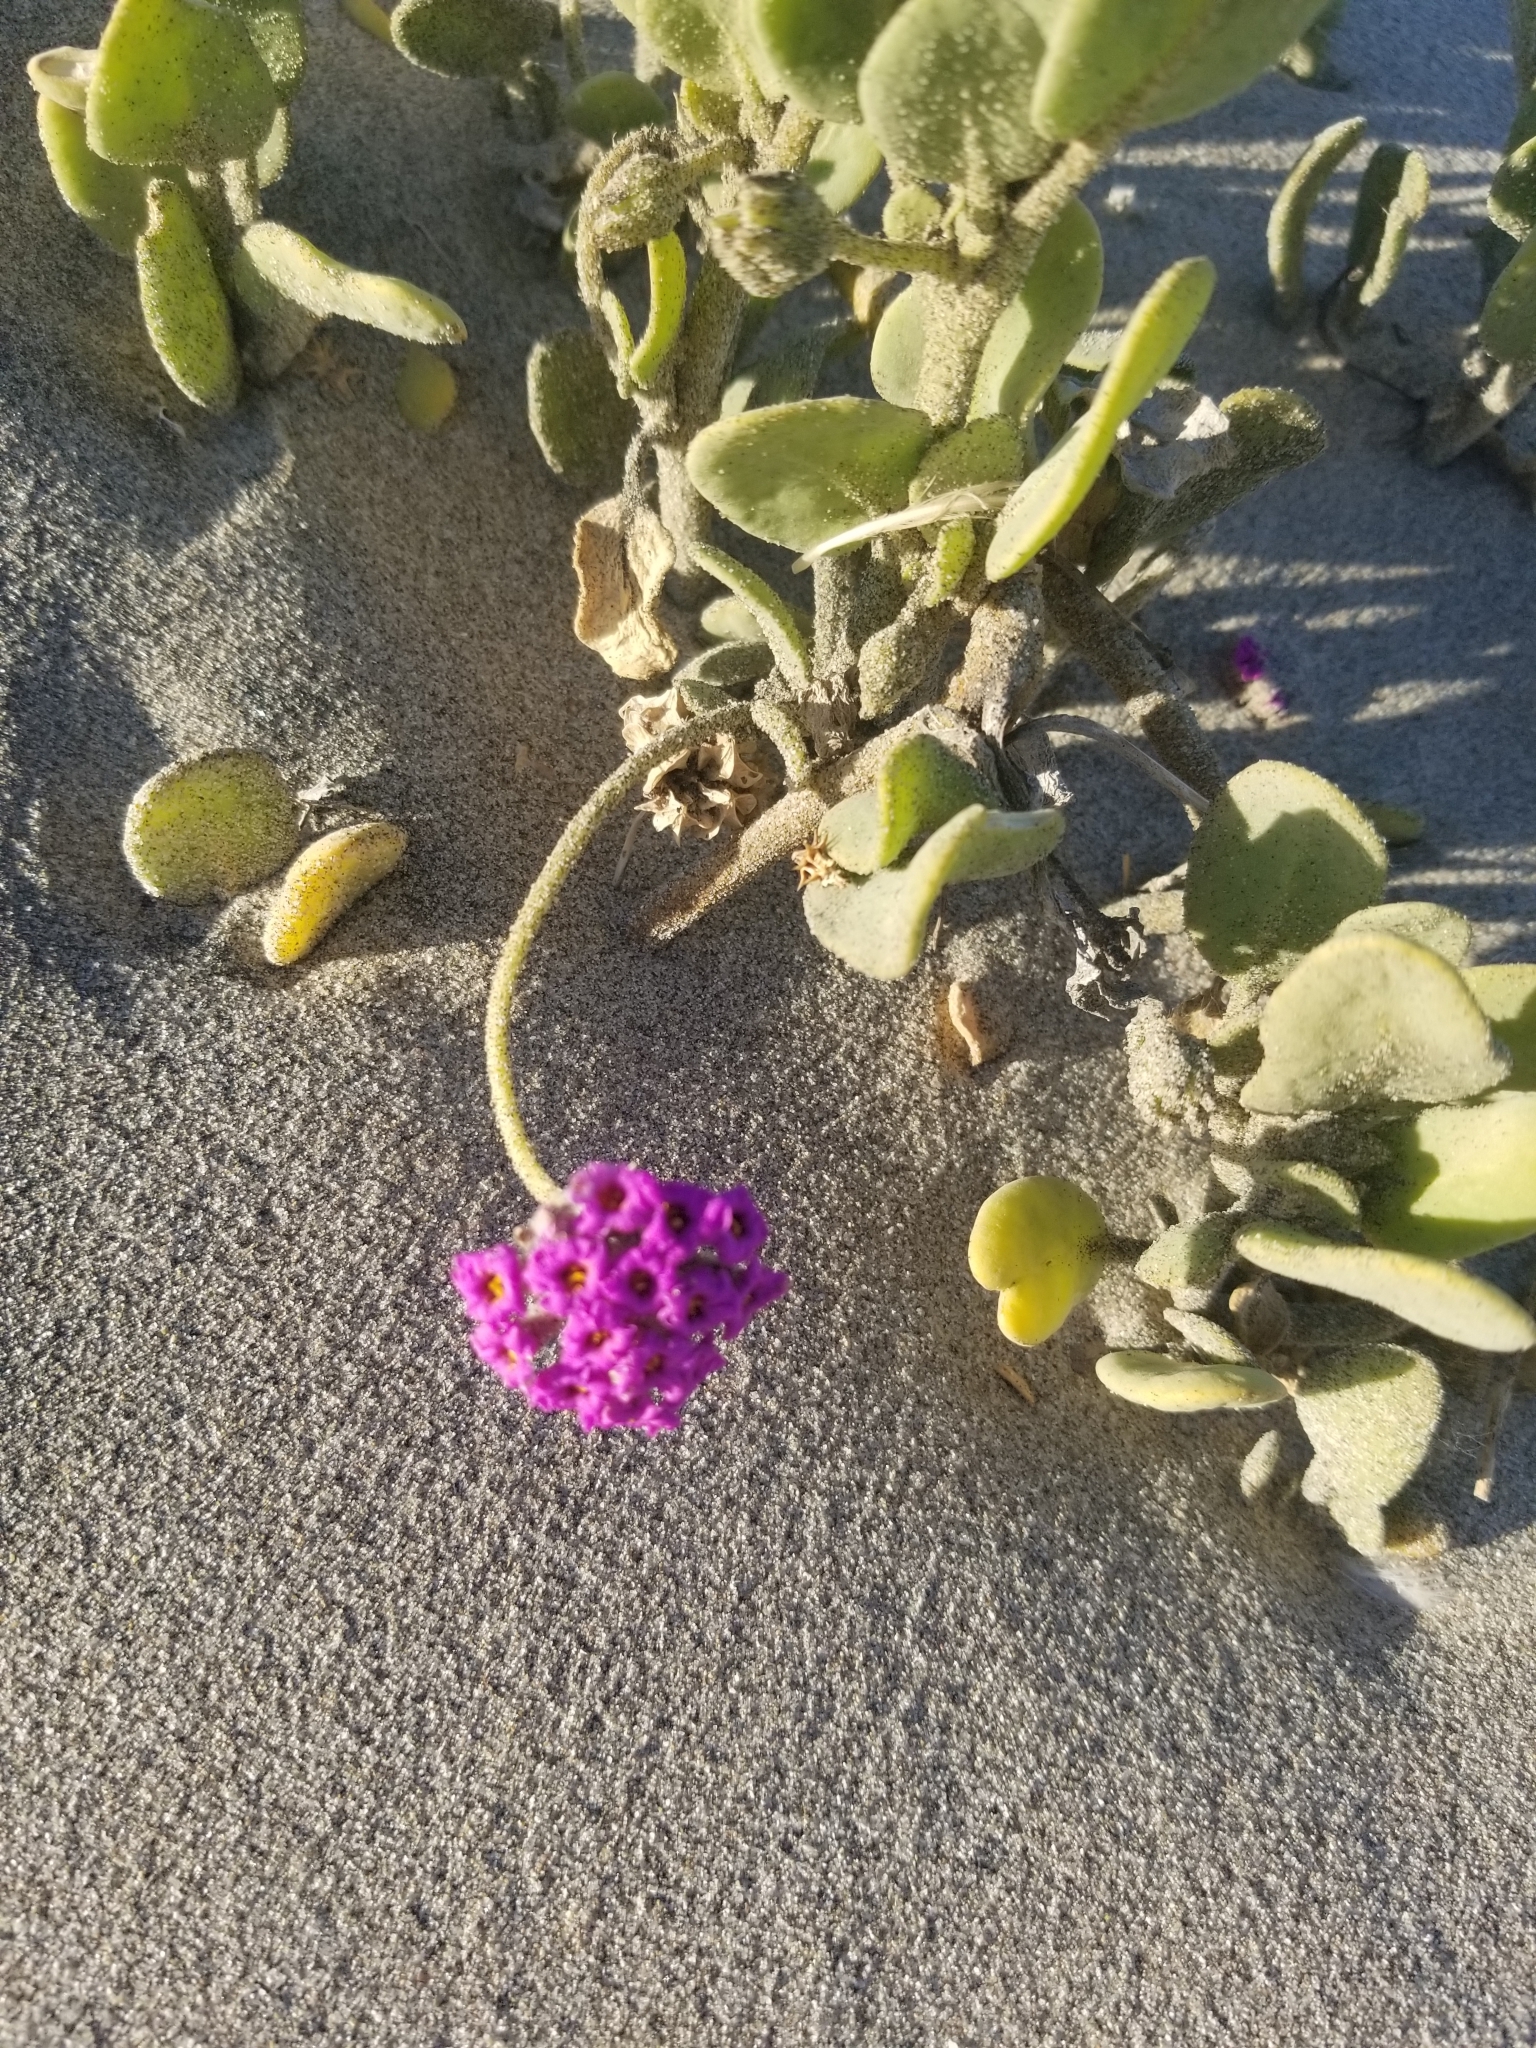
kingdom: Plantae
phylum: Tracheophyta
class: Magnoliopsida
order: Caryophyllales
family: Nyctaginaceae
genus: Abronia
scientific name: Abronia maritima
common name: Red sand-verbena
